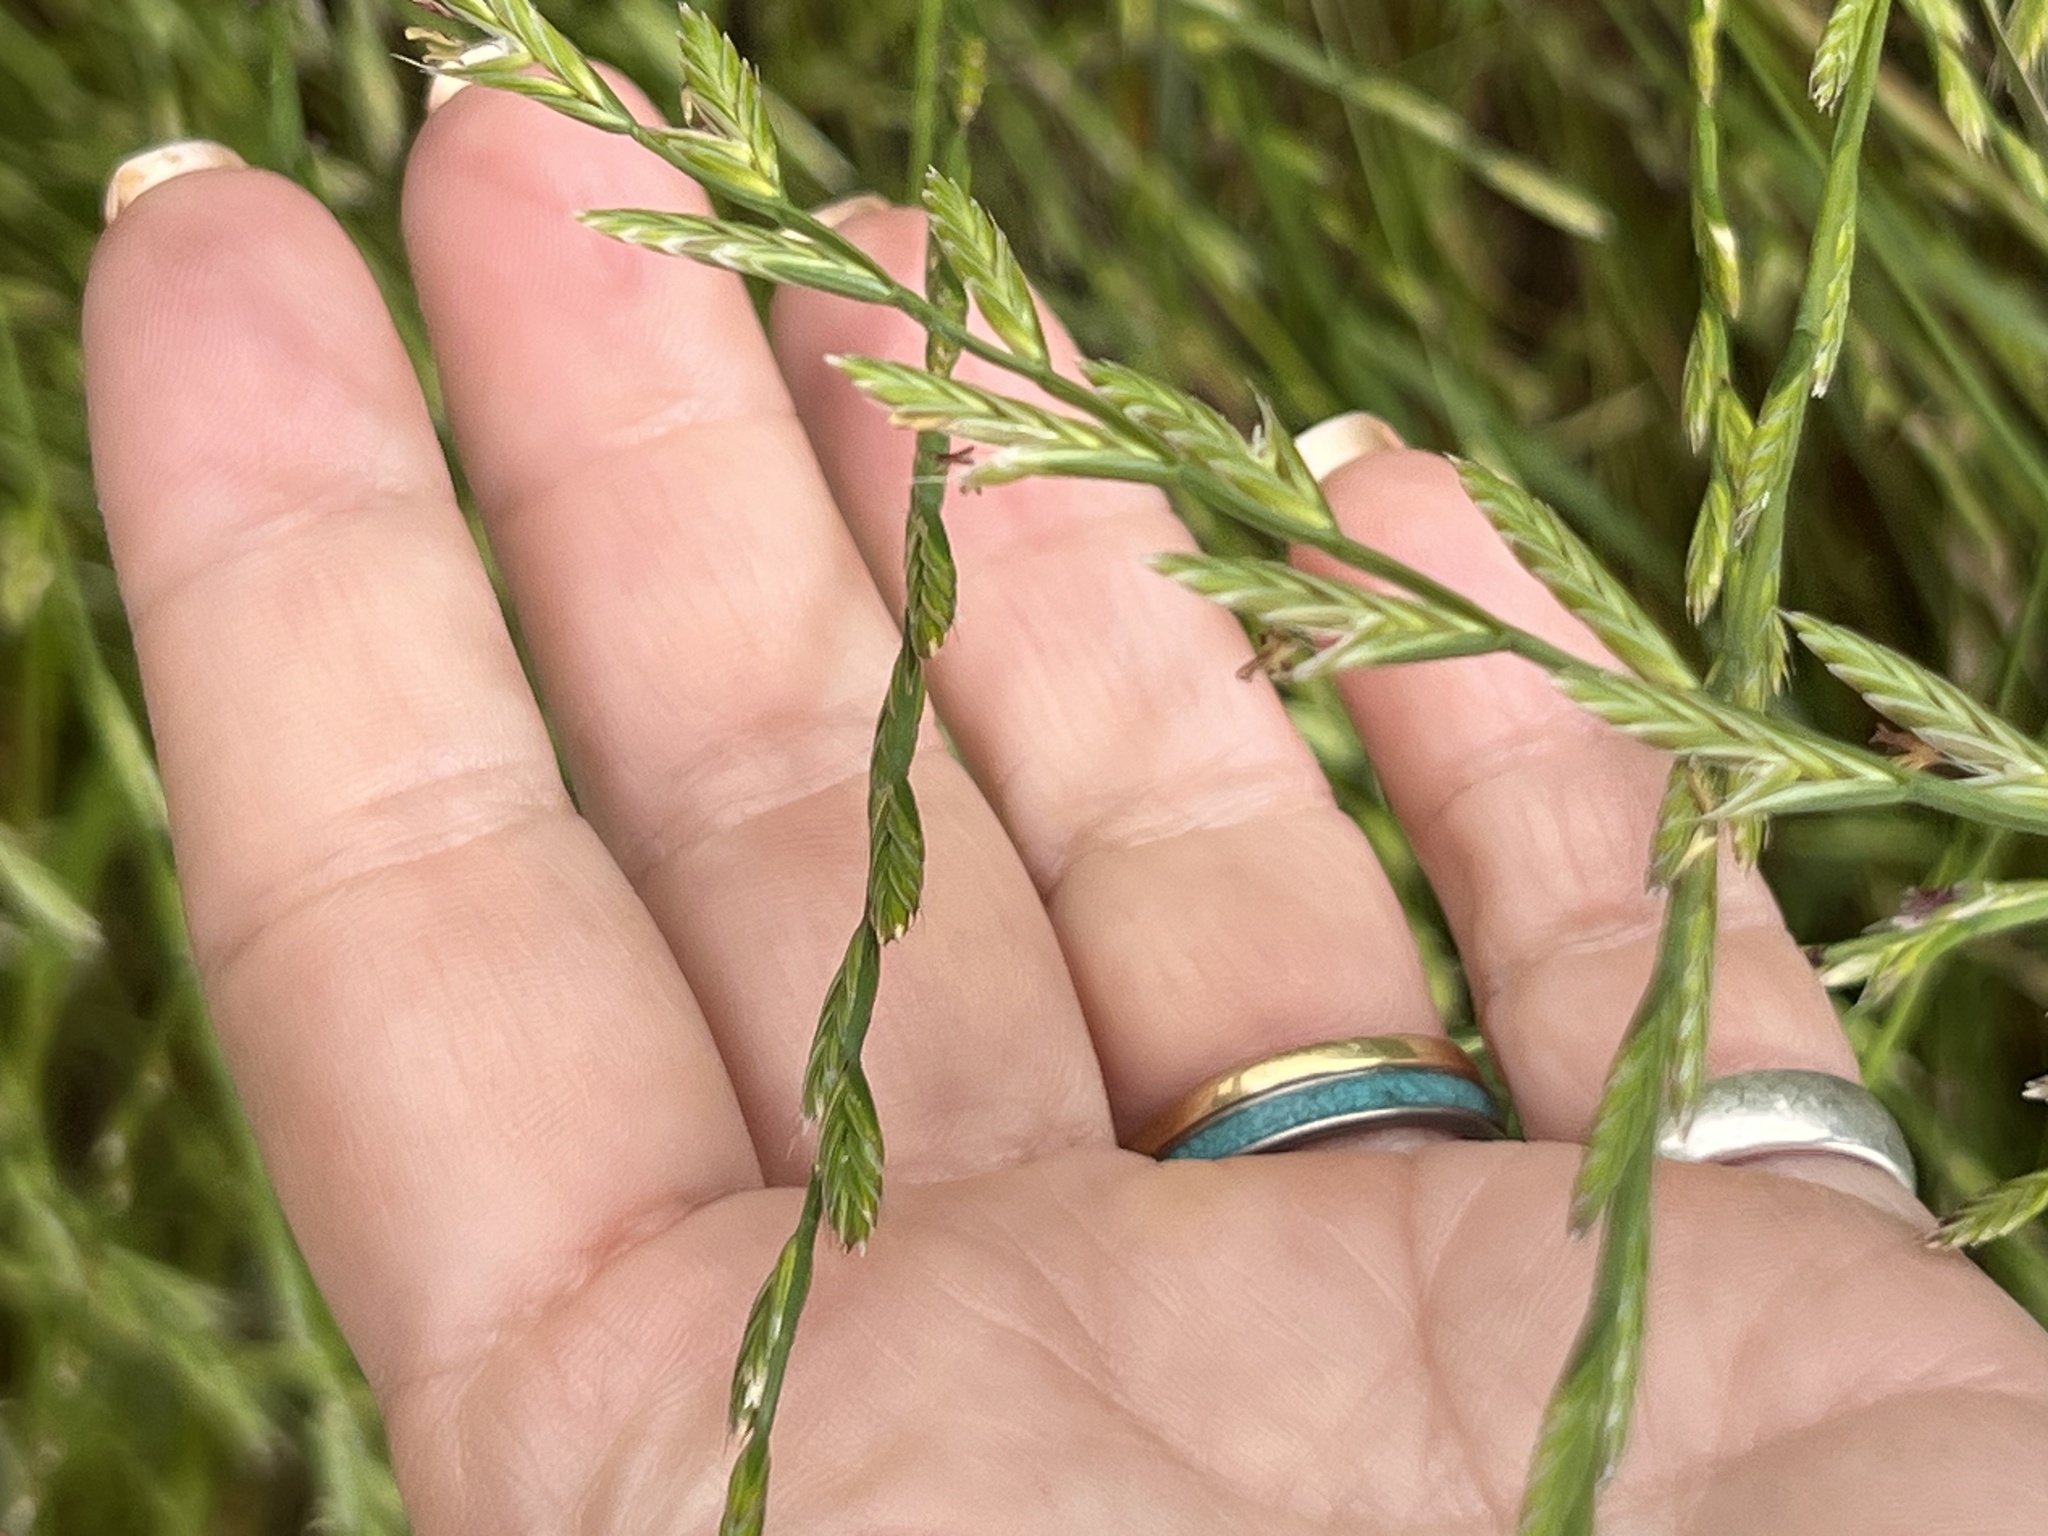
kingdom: Plantae
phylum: Tracheophyta
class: Liliopsida
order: Poales
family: Poaceae
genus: Lolium
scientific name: Lolium perenne
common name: Perennial ryegrass
